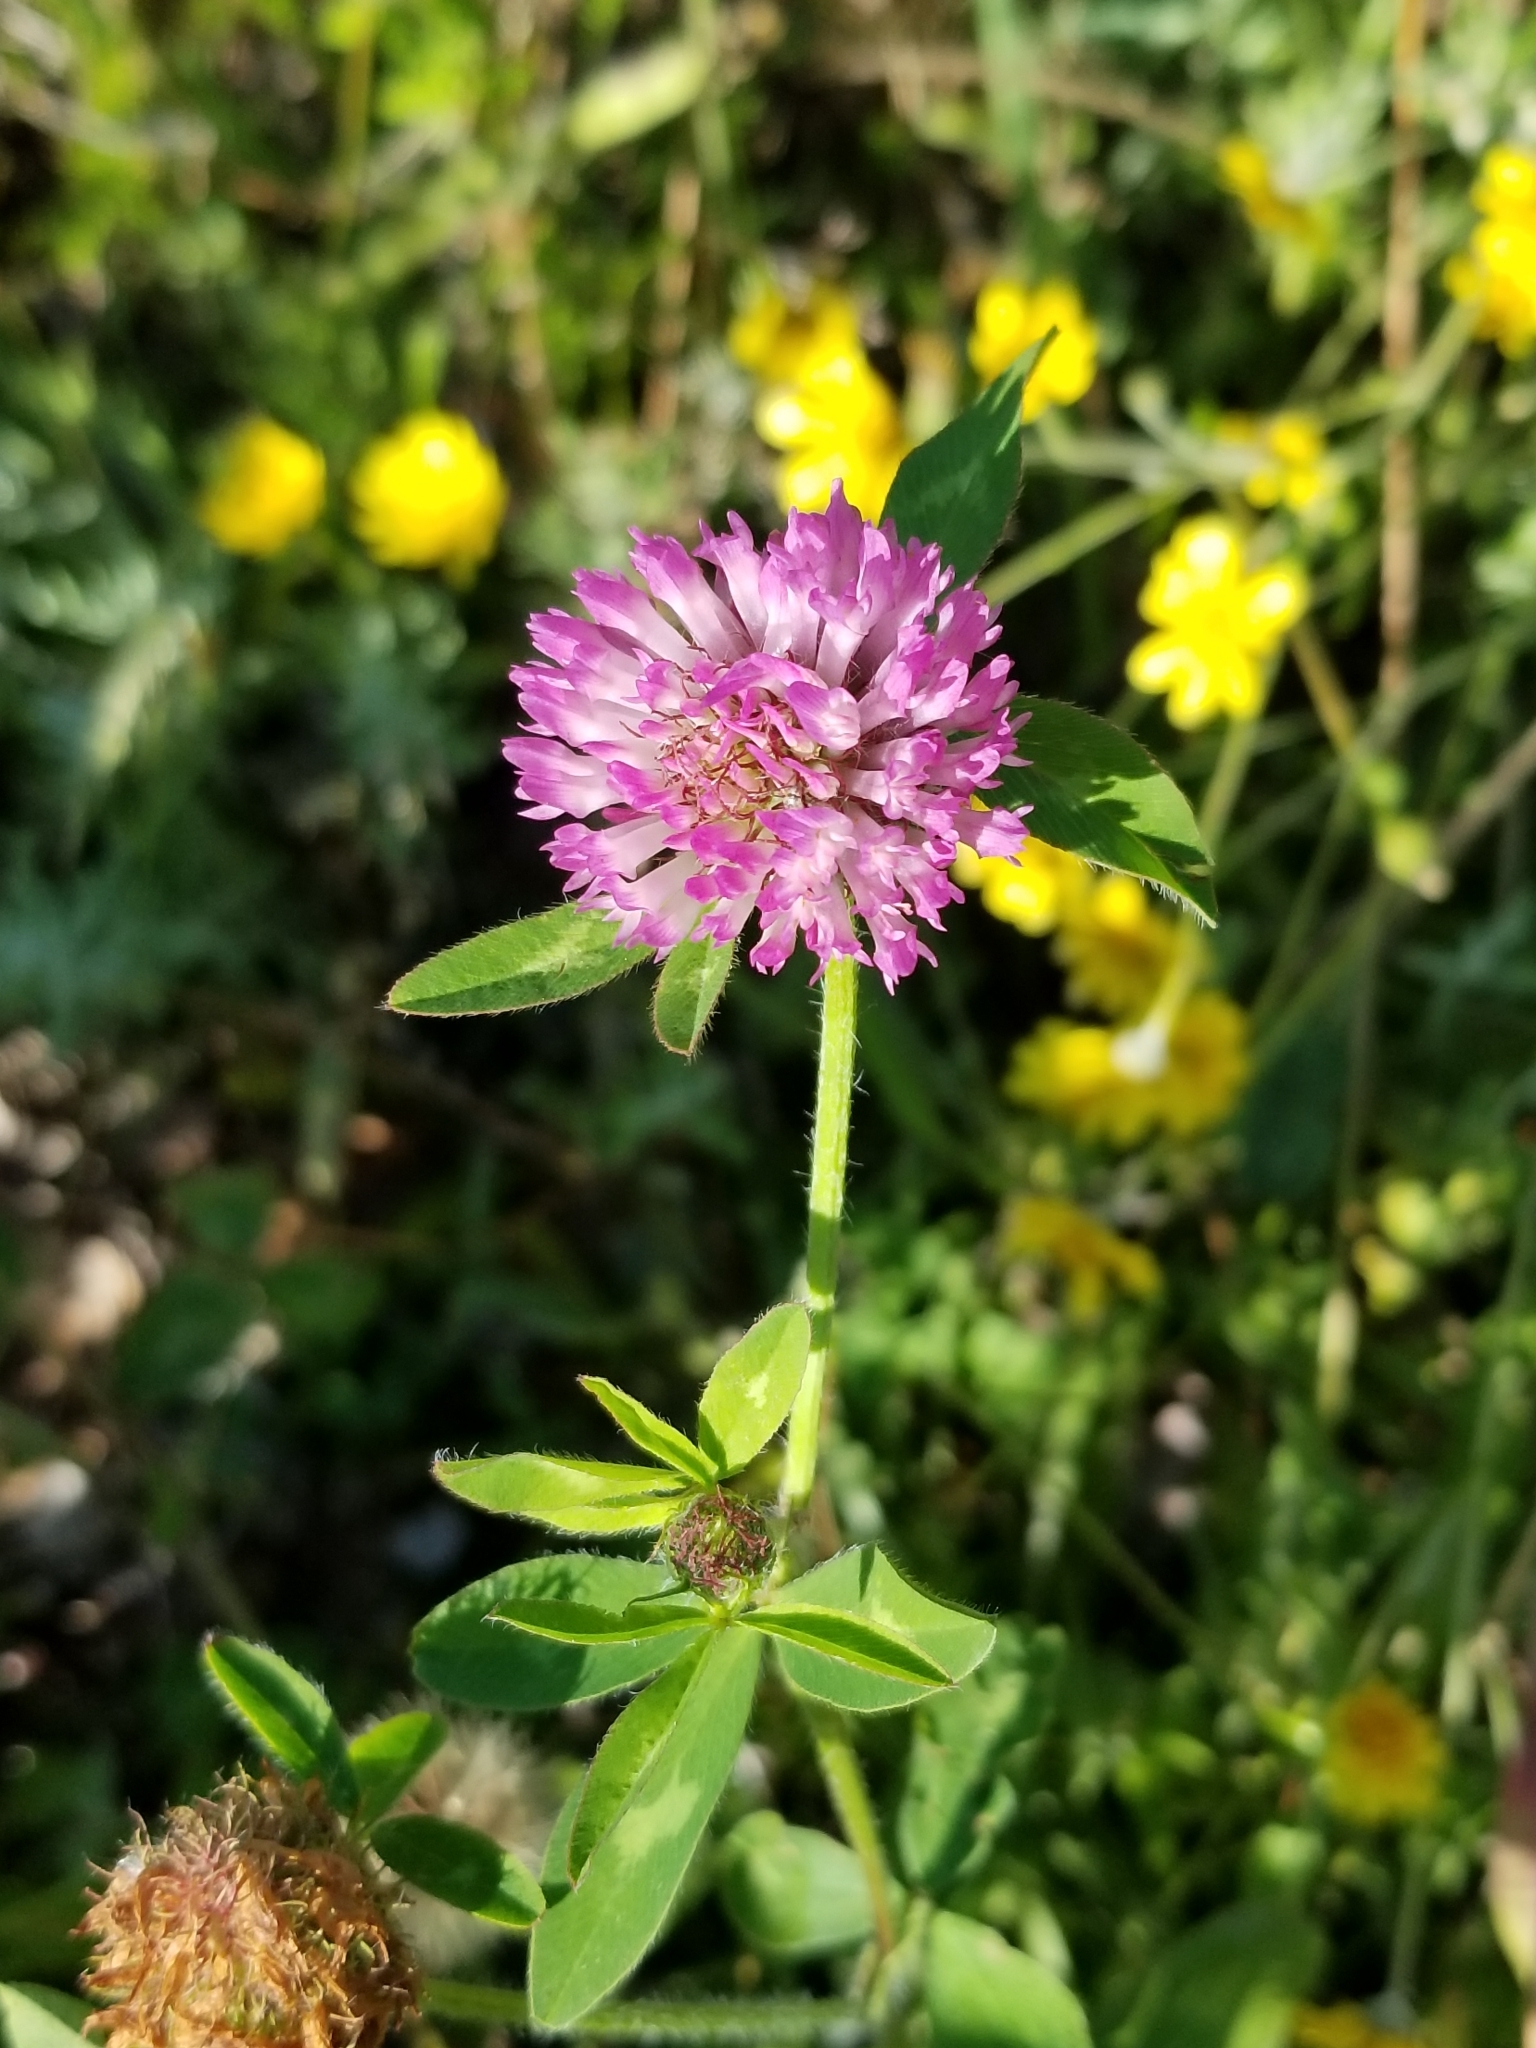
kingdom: Plantae
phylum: Tracheophyta
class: Magnoliopsida
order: Fabales
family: Fabaceae
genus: Trifolium
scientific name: Trifolium pratense
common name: Red clover
